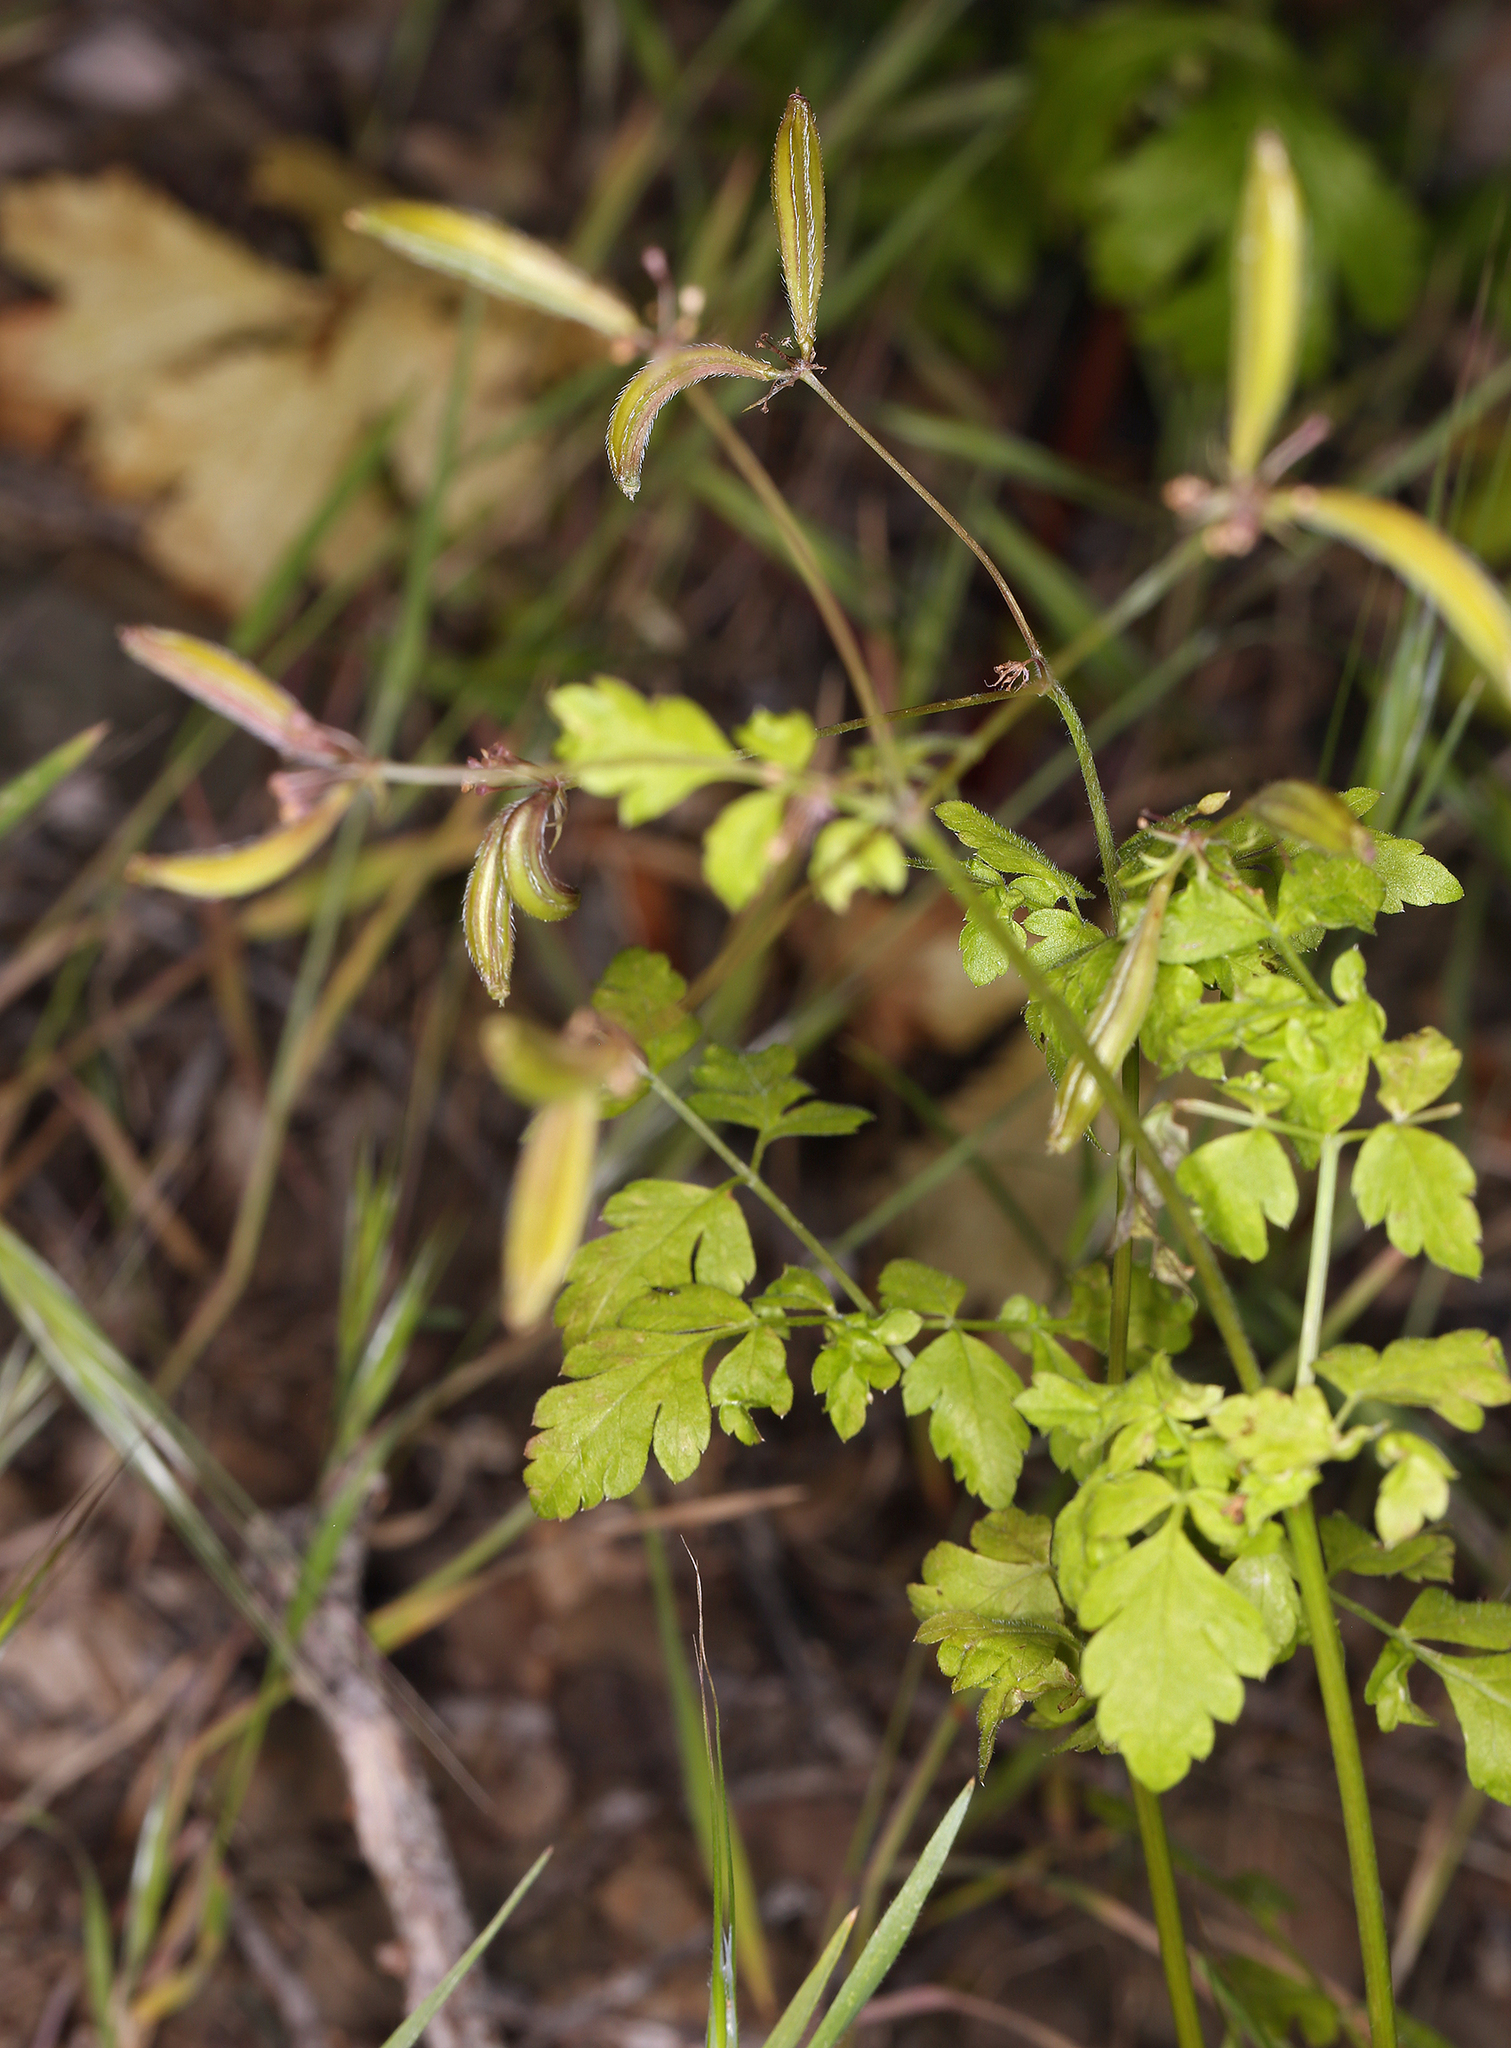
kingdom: Plantae
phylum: Tracheophyta
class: Magnoliopsida
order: Apiales
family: Apiaceae
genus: Osmorhiza
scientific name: Osmorhiza brachypoda
